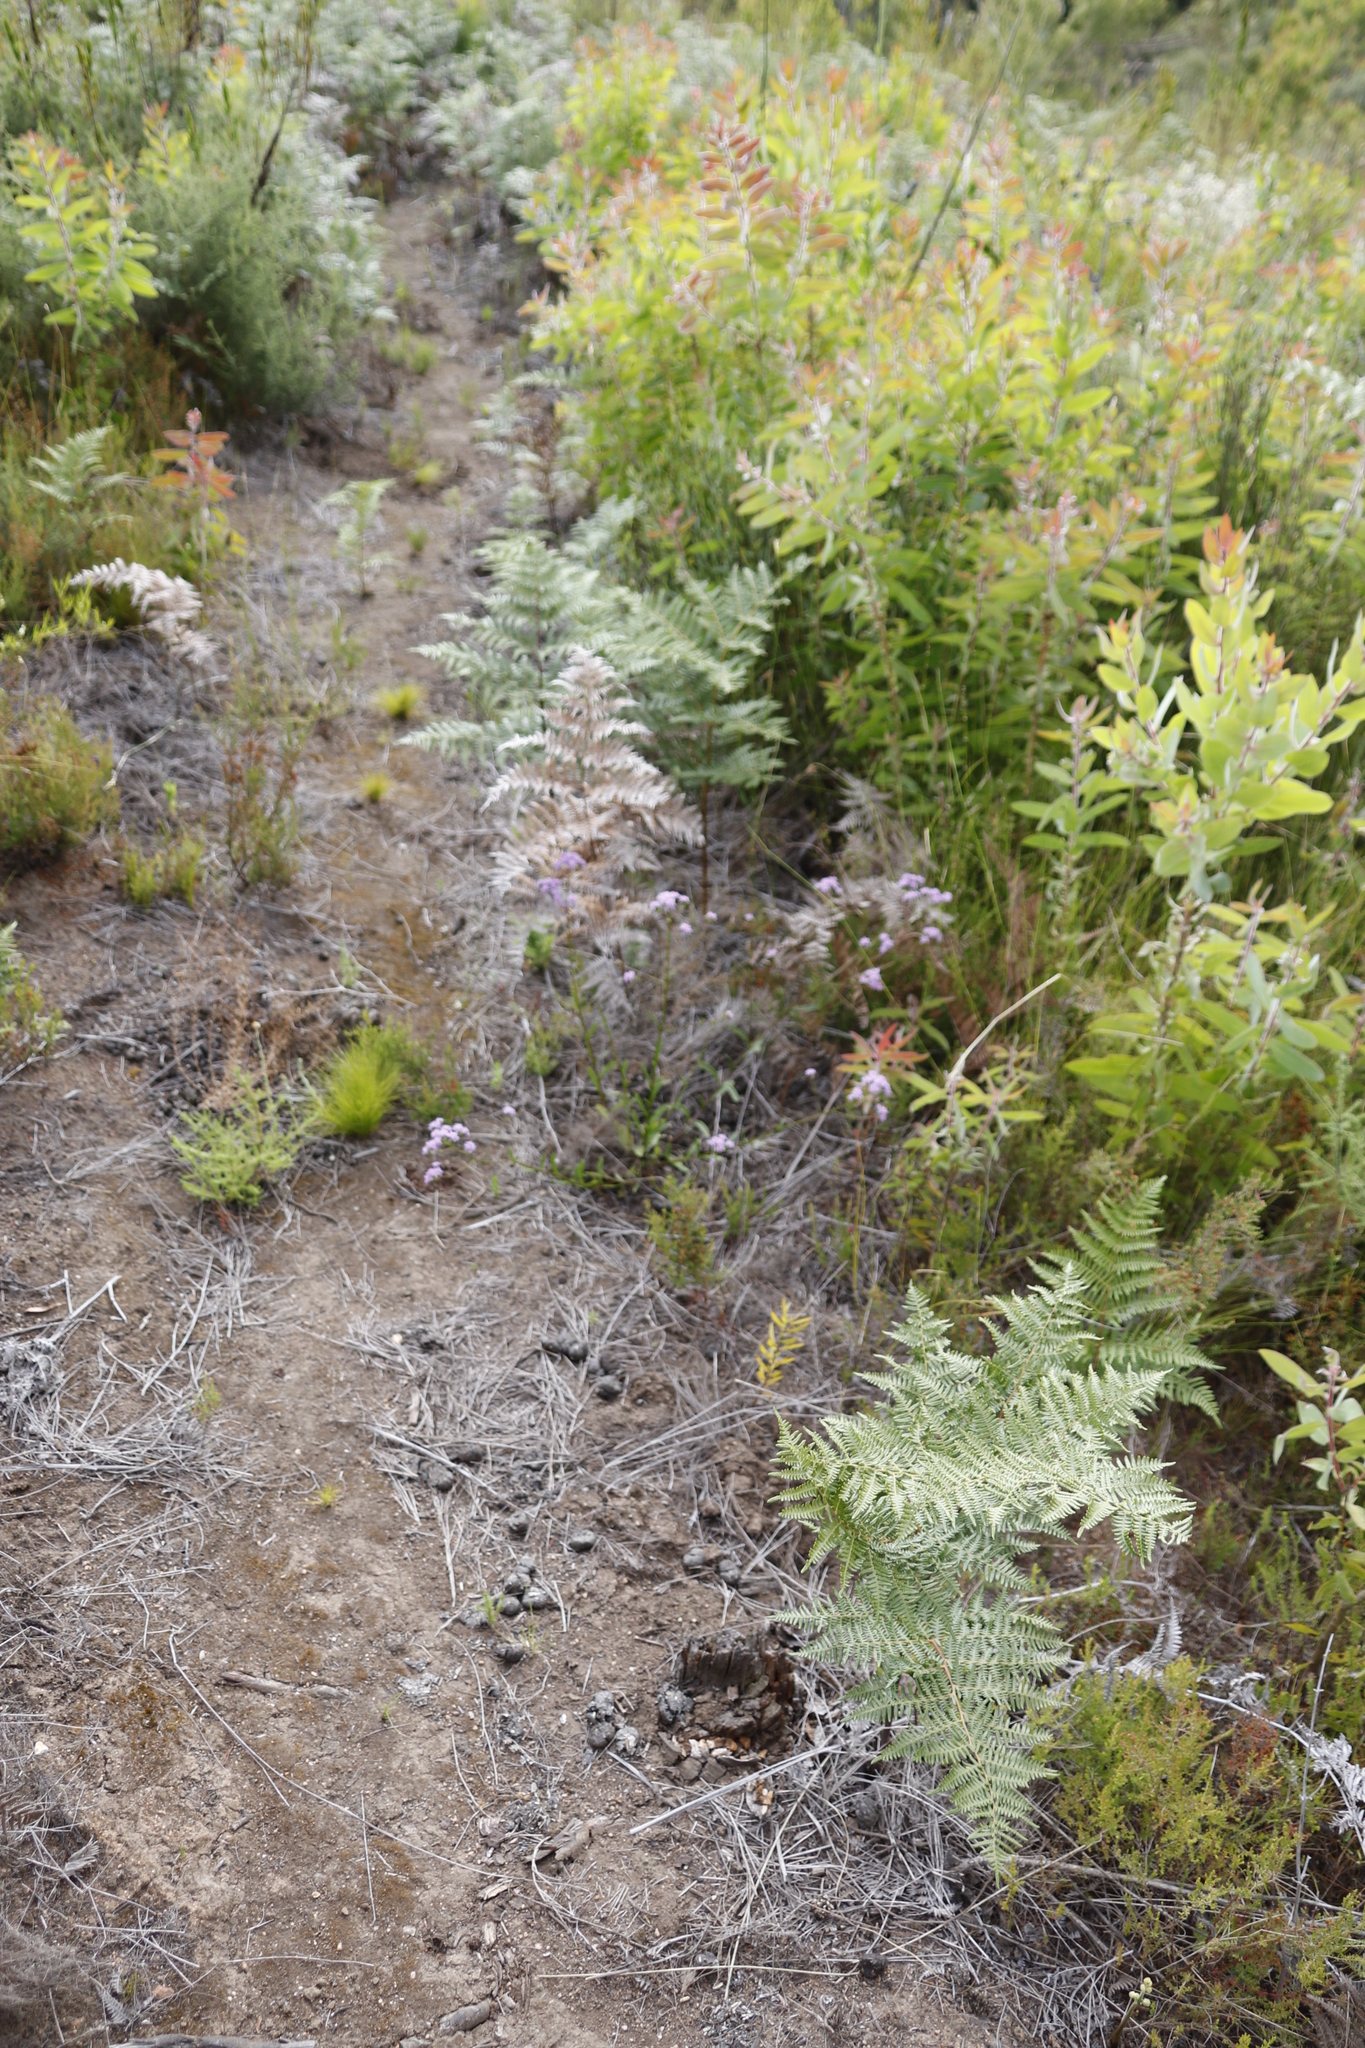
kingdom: Plantae
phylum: Tracheophyta
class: Polypodiopsida
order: Polypodiales
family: Dennstaedtiaceae
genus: Pteridium
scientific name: Pteridium aquilinum
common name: Bracken
